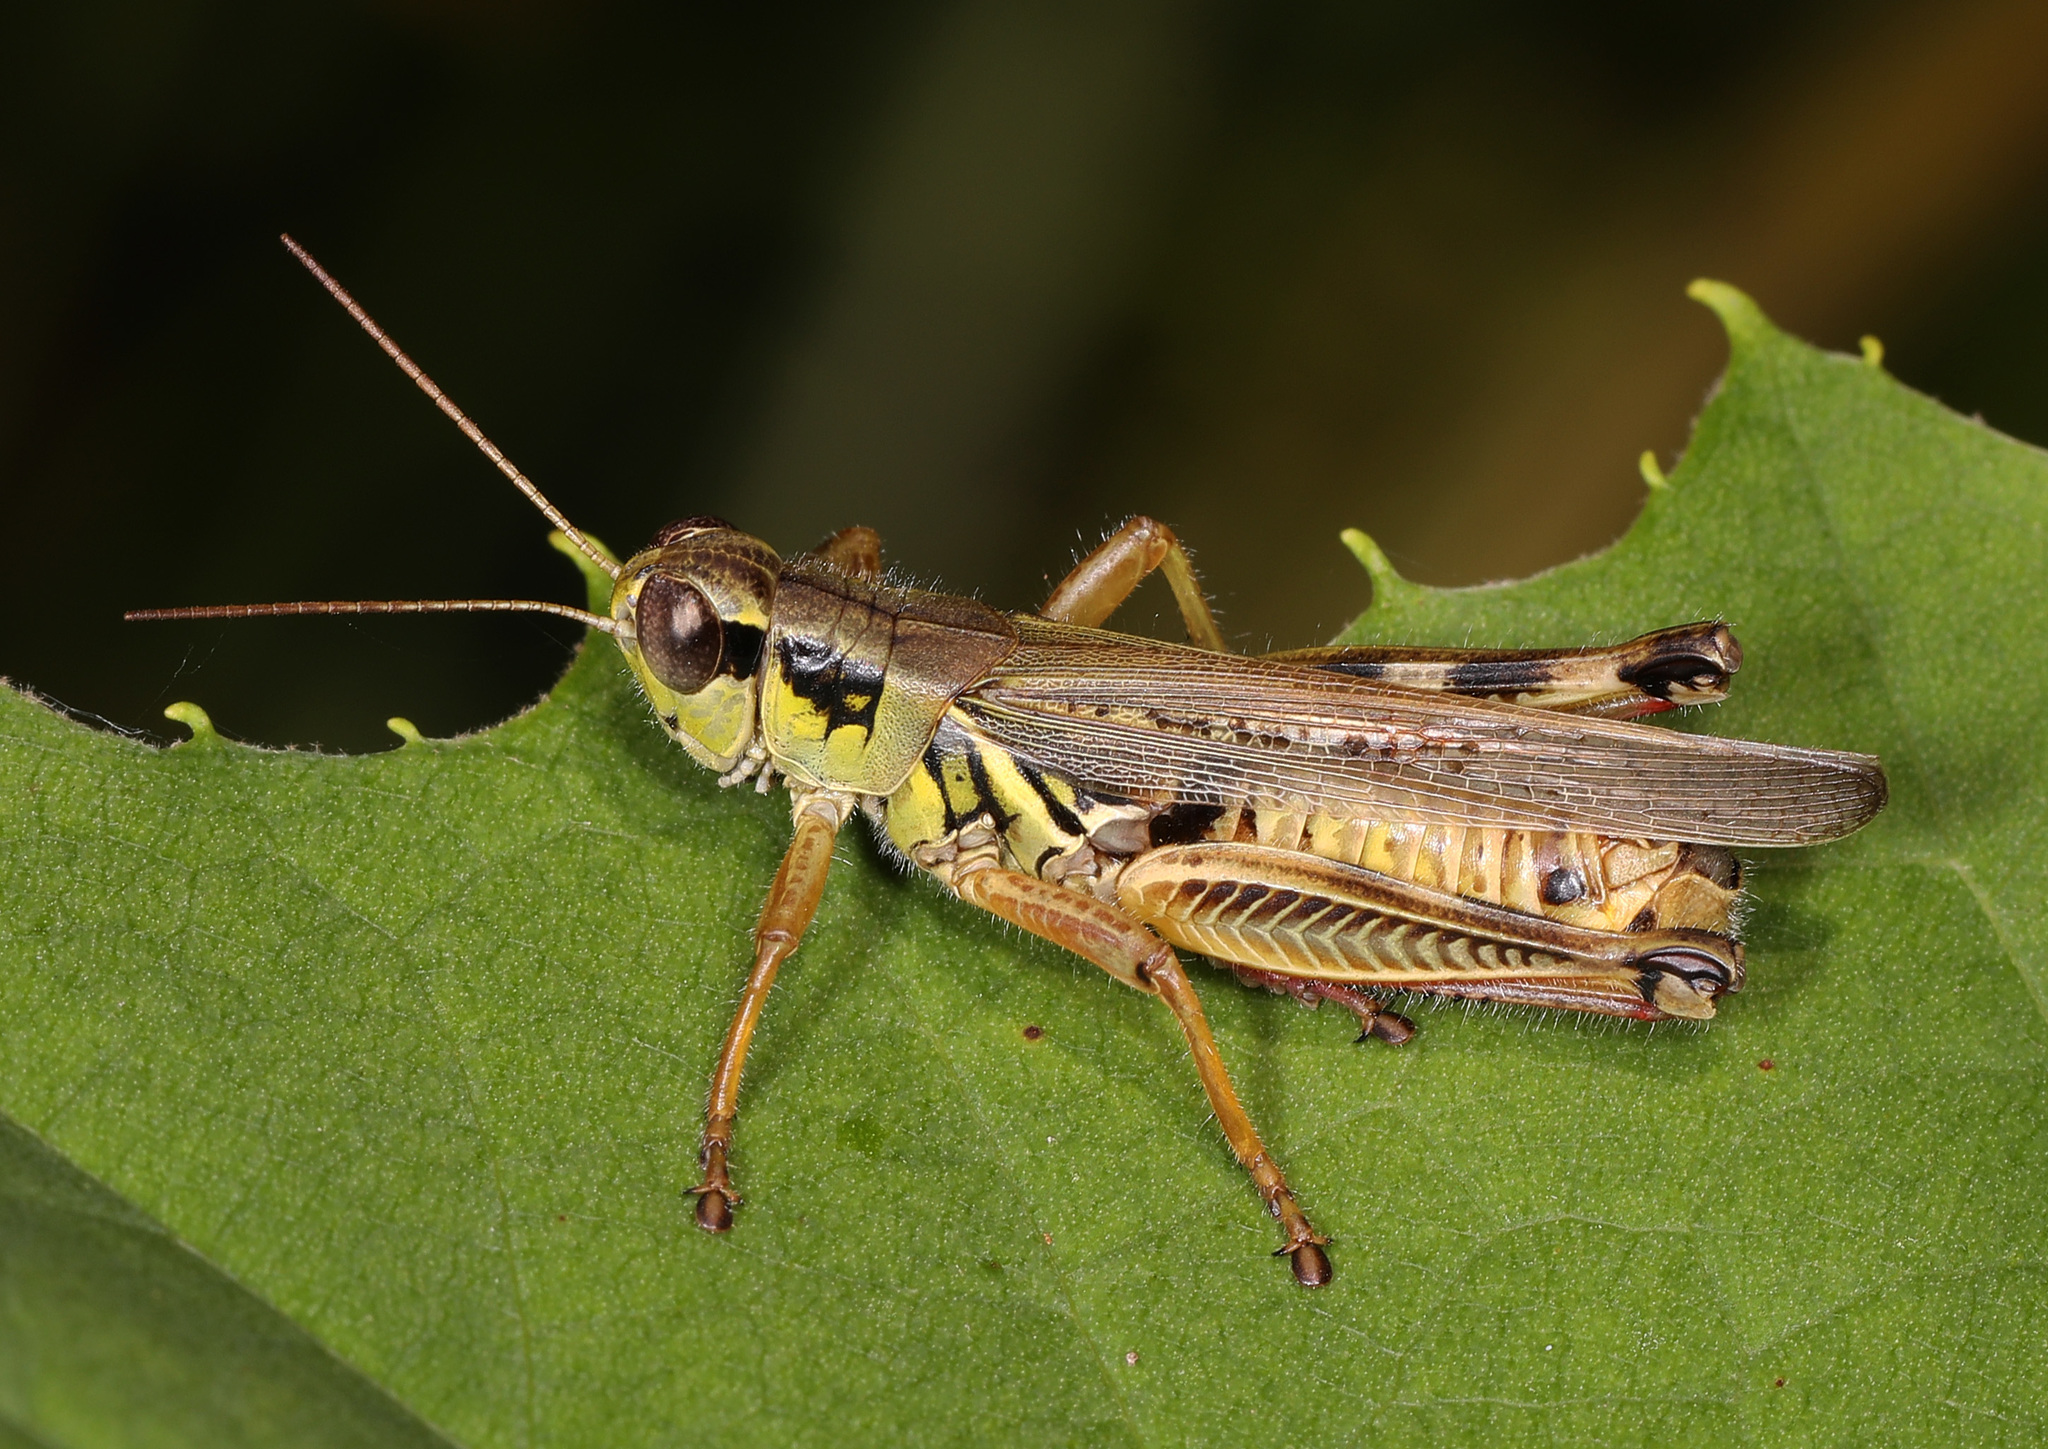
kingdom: Animalia
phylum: Arthropoda
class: Insecta
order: Orthoptera
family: Acrididae
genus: Melanoplus
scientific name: Melanoplus femurrubrum
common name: Red-legged grasshopper
